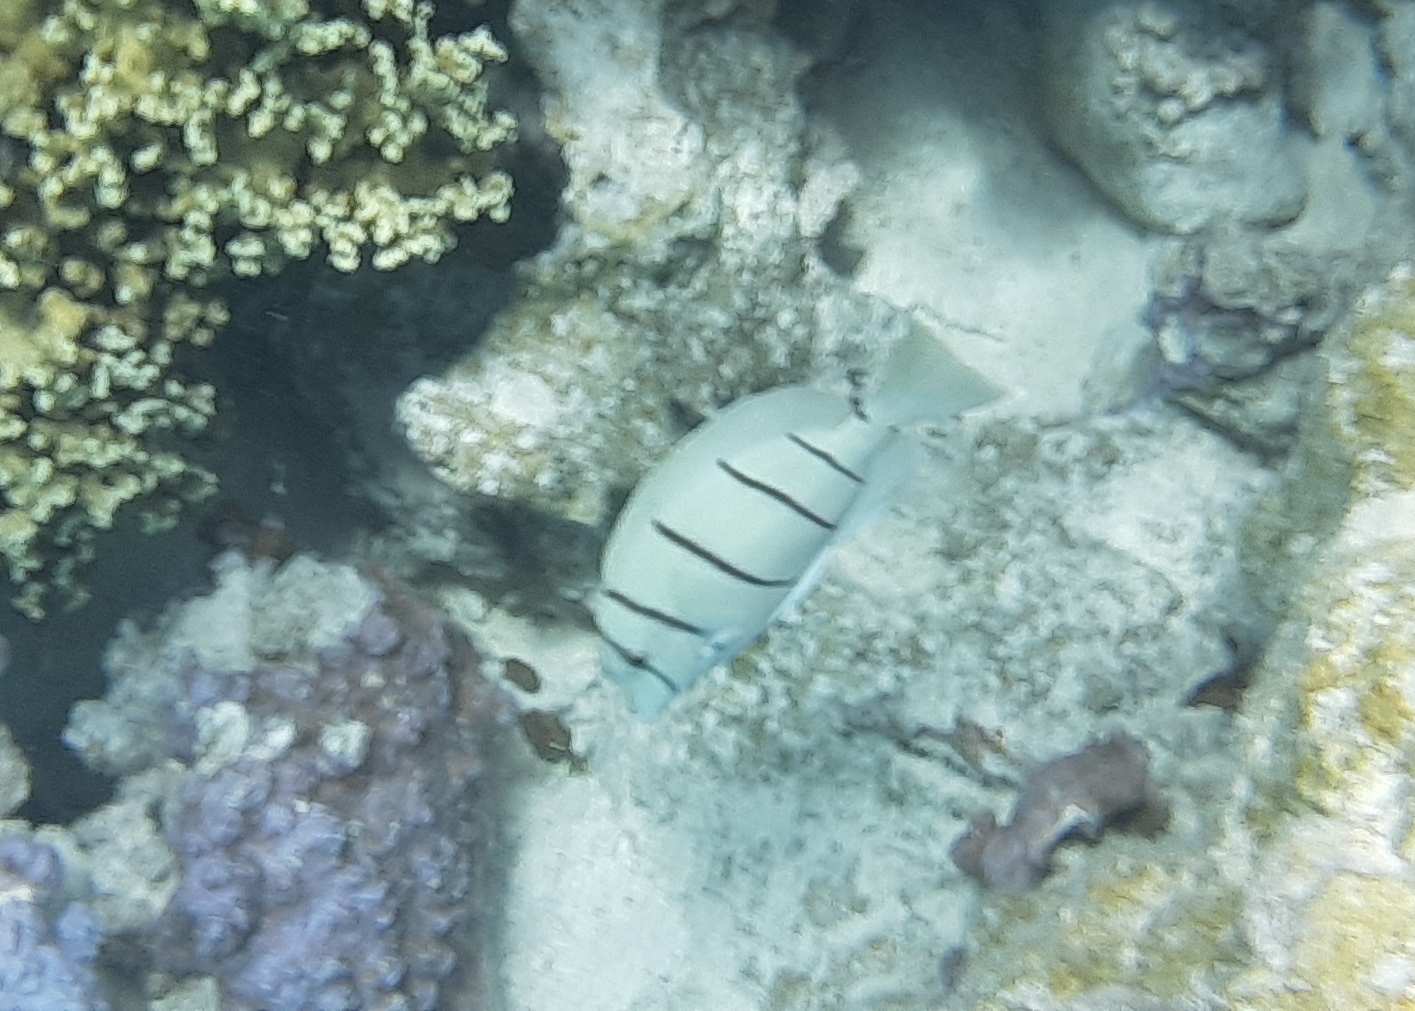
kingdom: Animalia
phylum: Chordata
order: Perciformes
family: Acanthuridae
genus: Acanthurus
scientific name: Acanthurus triostegus
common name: Convict surgeonfish
